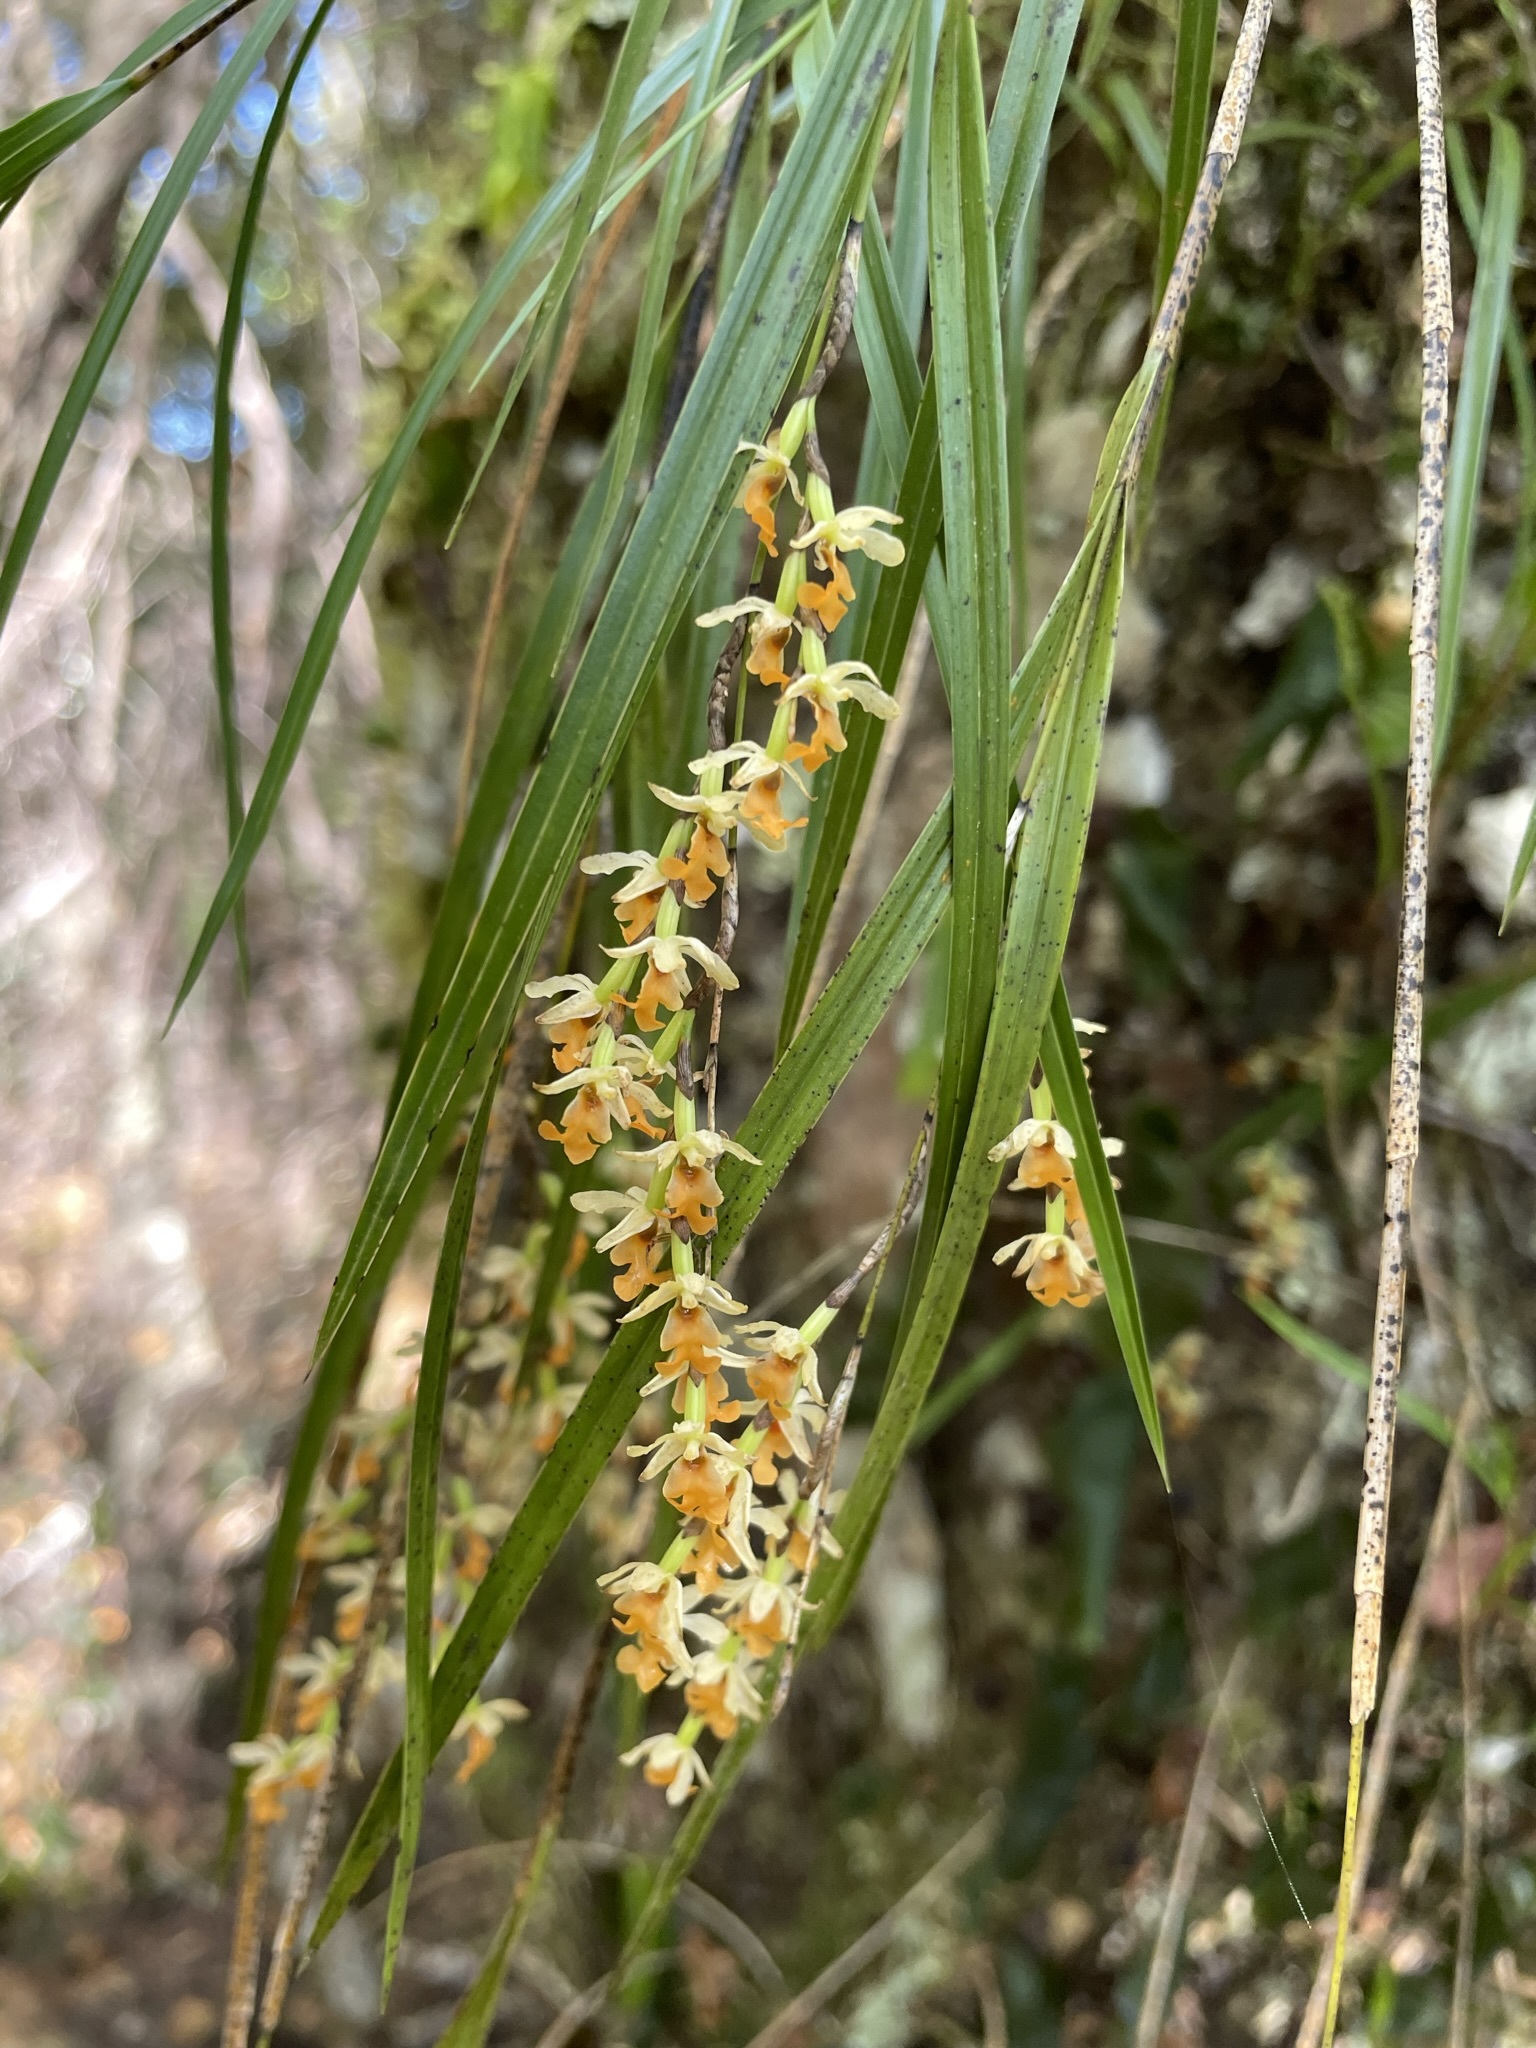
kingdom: Plantae
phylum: Tracheophyta
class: Liliopsida
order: Asparagales
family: Orchidaceae
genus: Earina
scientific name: Earina mucronata
